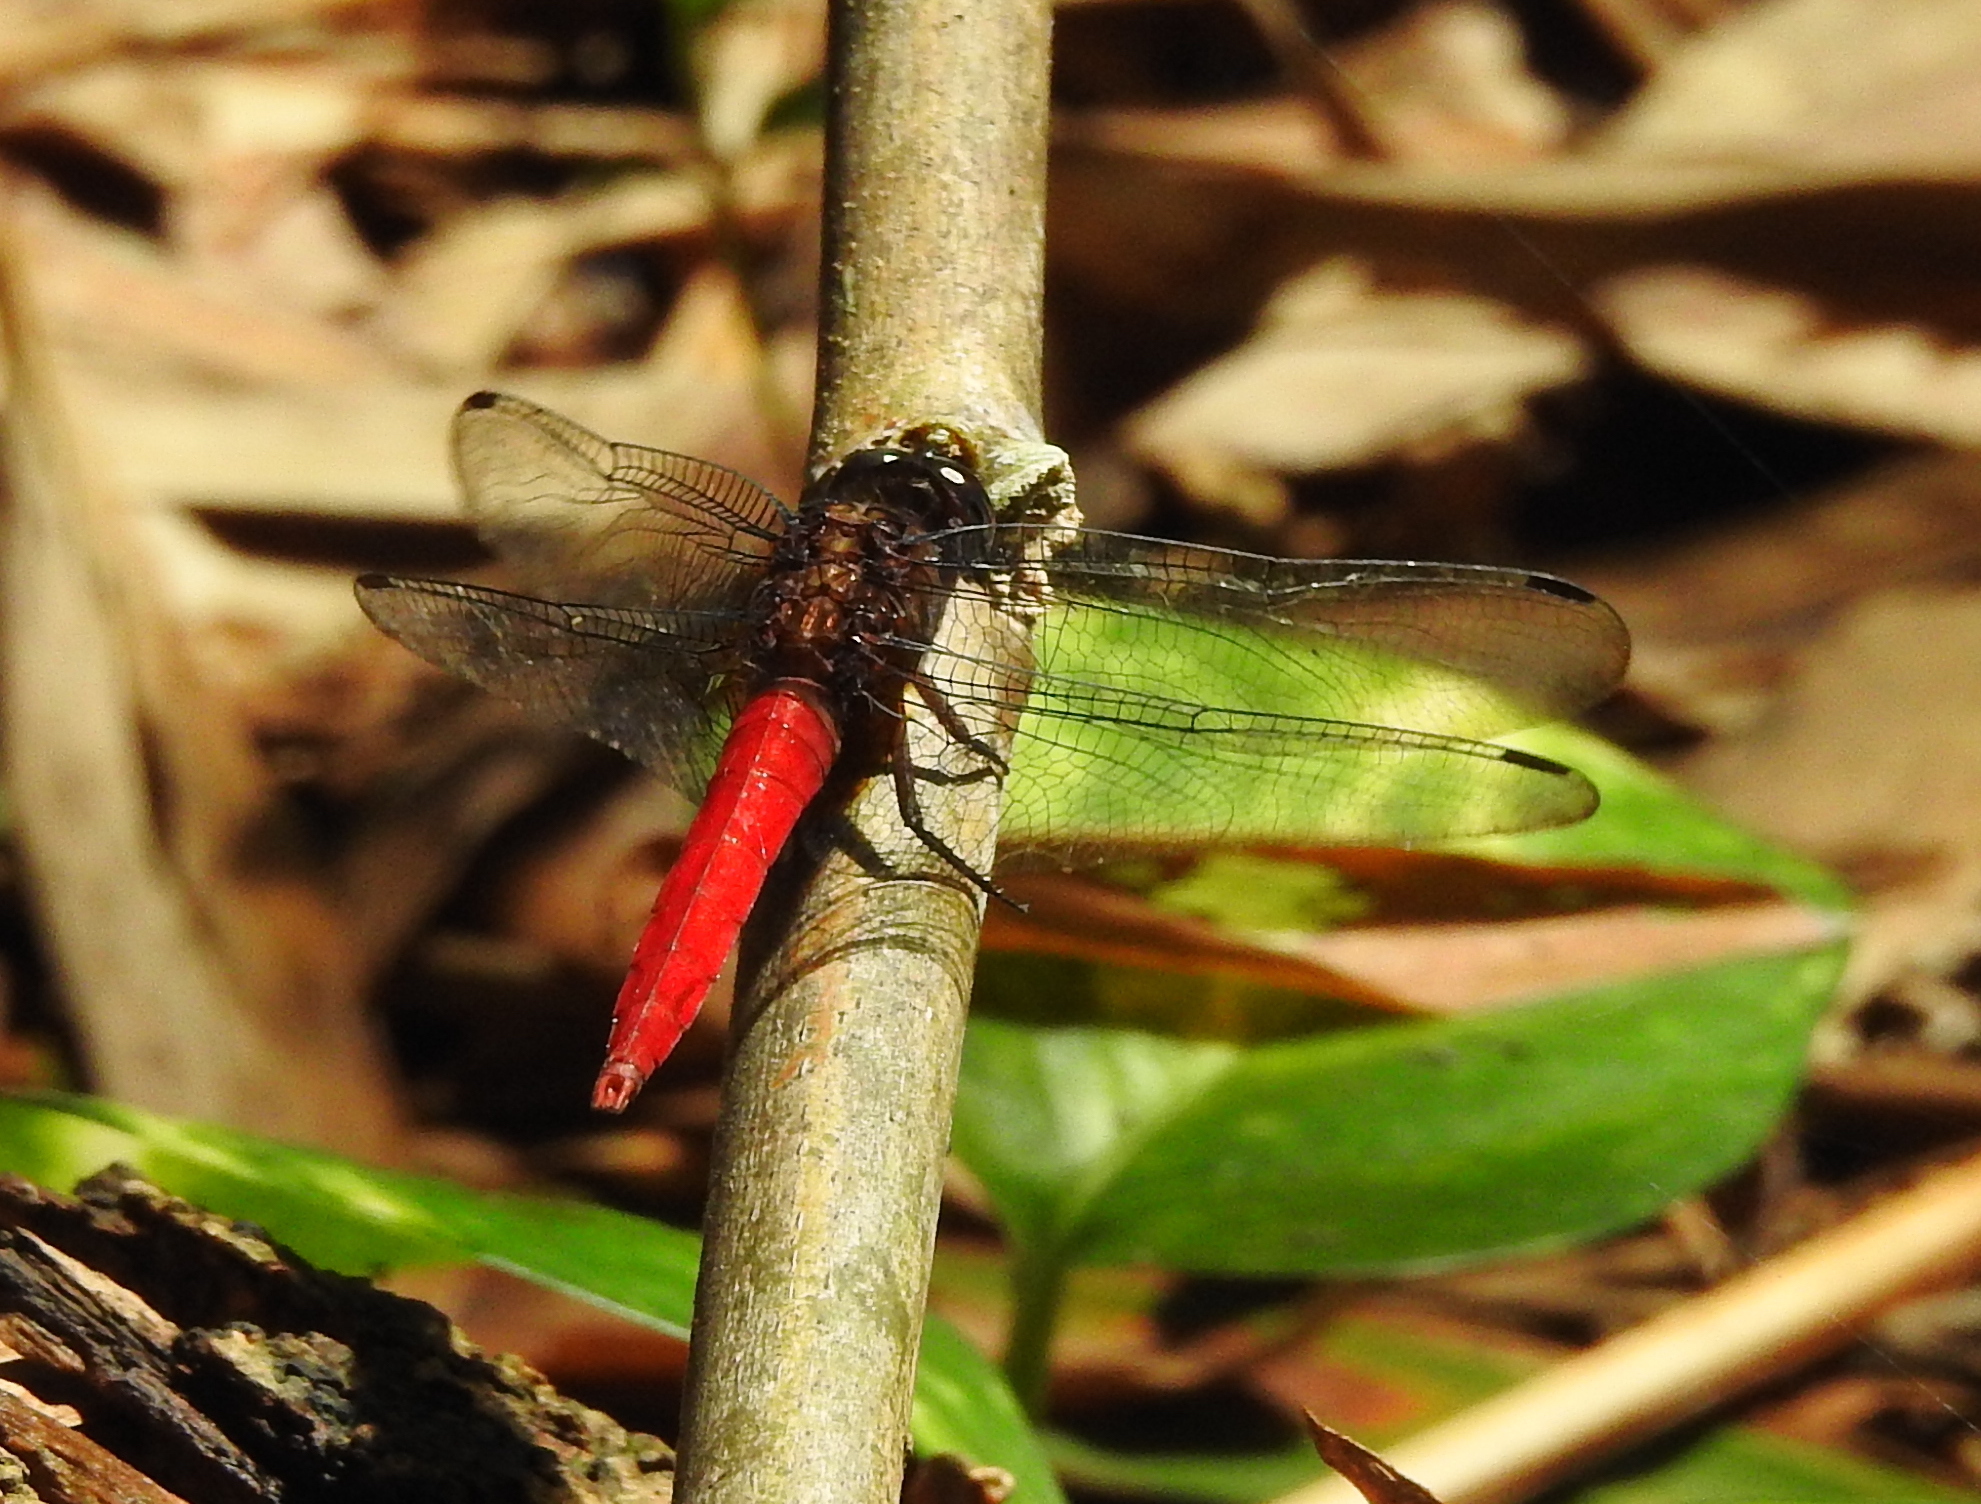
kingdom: Animalia
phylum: Arthropoda
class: Insecta
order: Odonata
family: Libellulidae
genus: Orthetrum
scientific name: Orthetrum chrysis
